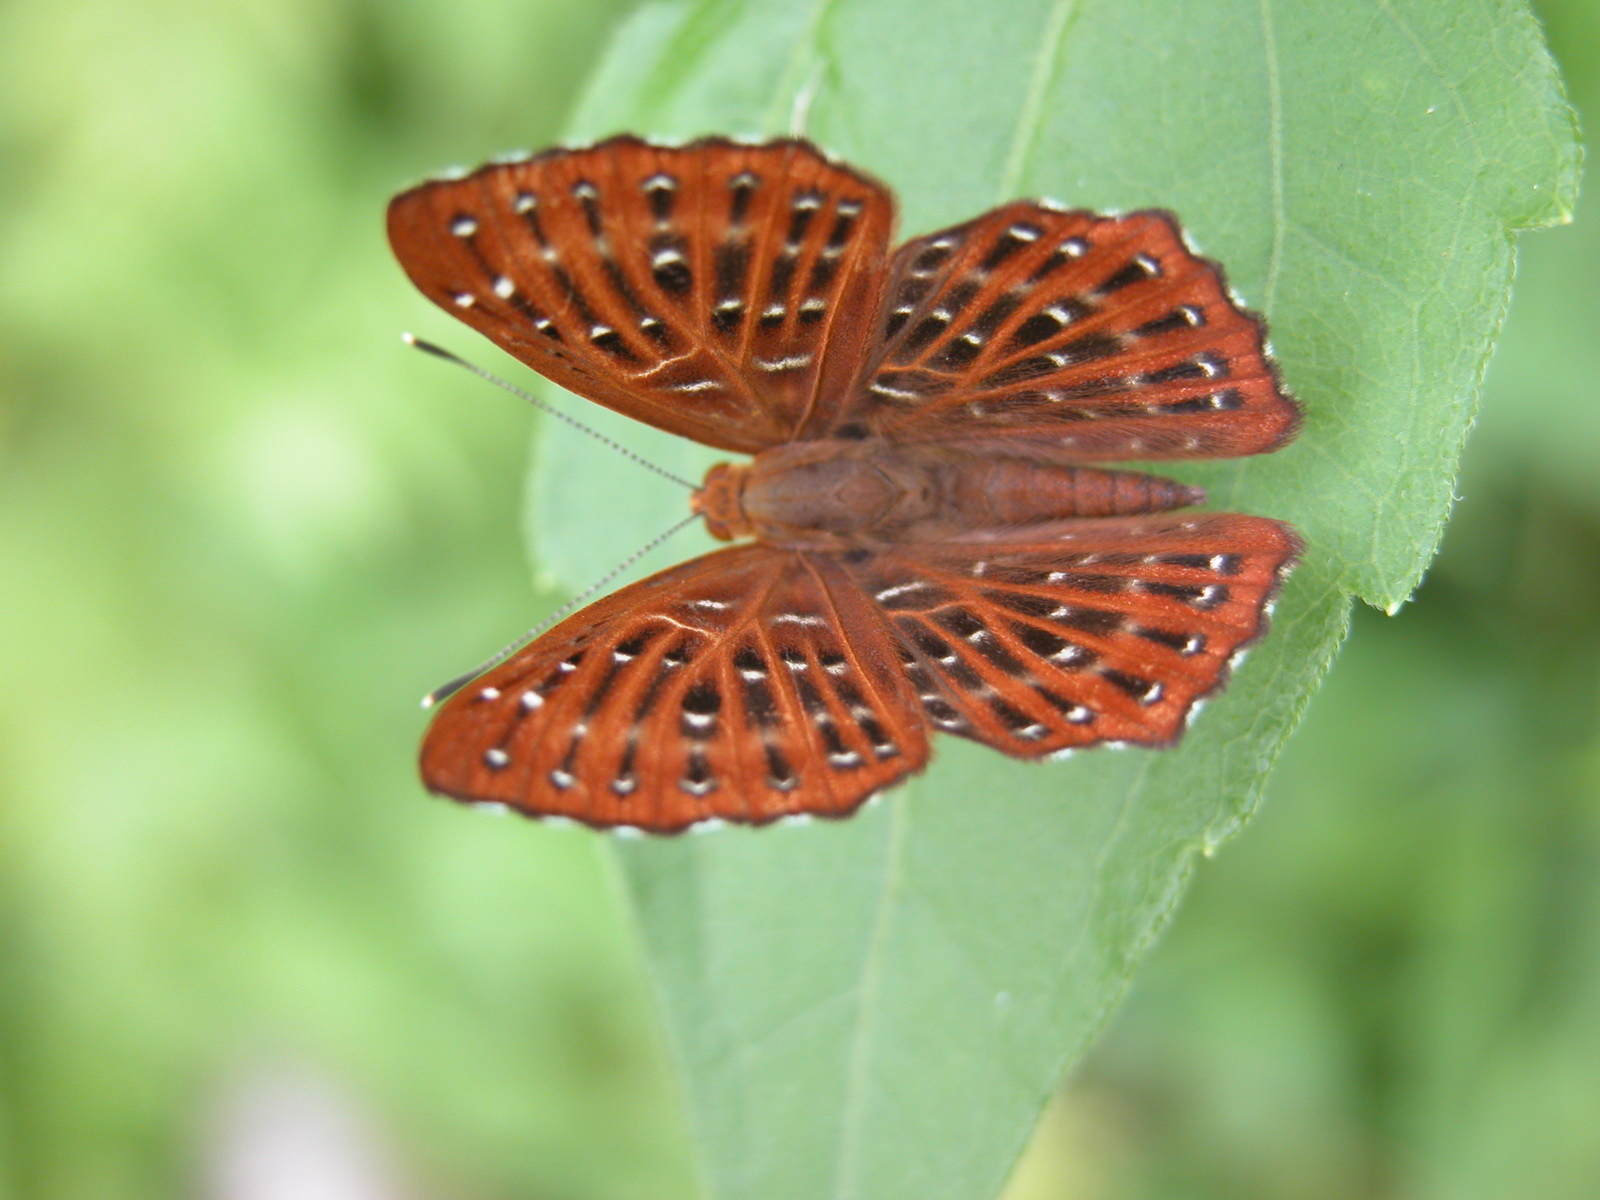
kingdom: Animalia
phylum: Arthropoda
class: Insecta
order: Lepidoptera
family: Riodinidae
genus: Zemeros
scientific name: Zemeros flegyas
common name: Punchinello
